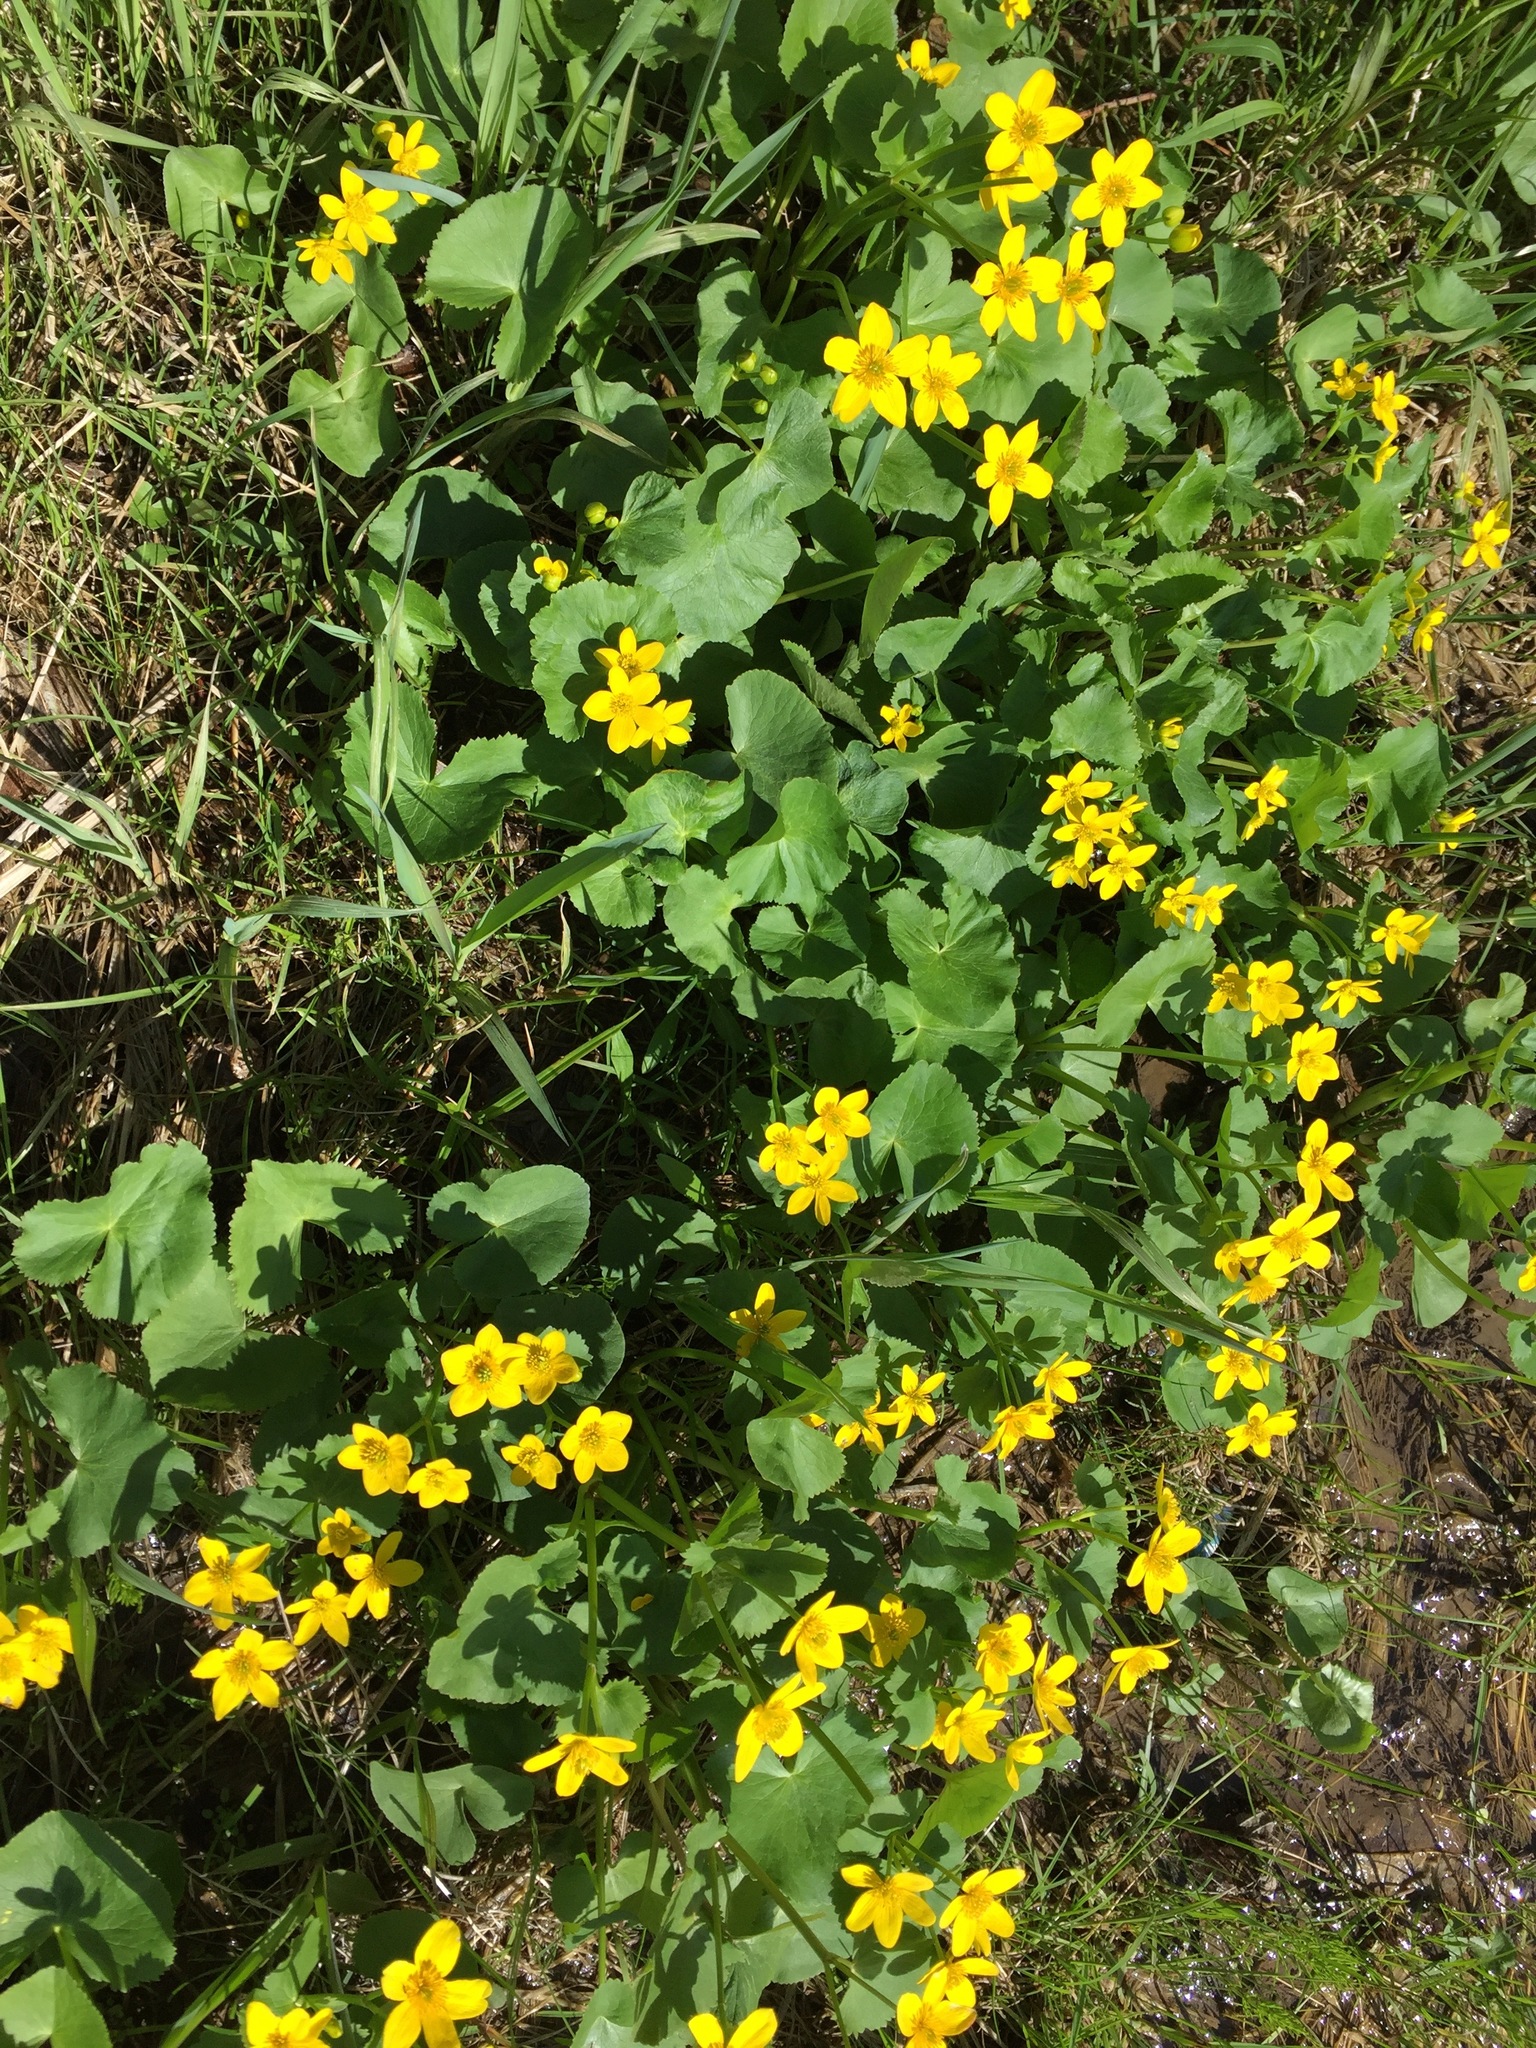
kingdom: Plantae
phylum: Tracheophyta
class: Magnoliopsida
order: Ranunculales
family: Ranunculaceae
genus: Caltha
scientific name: Caltha palustris
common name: Marsh marigold
